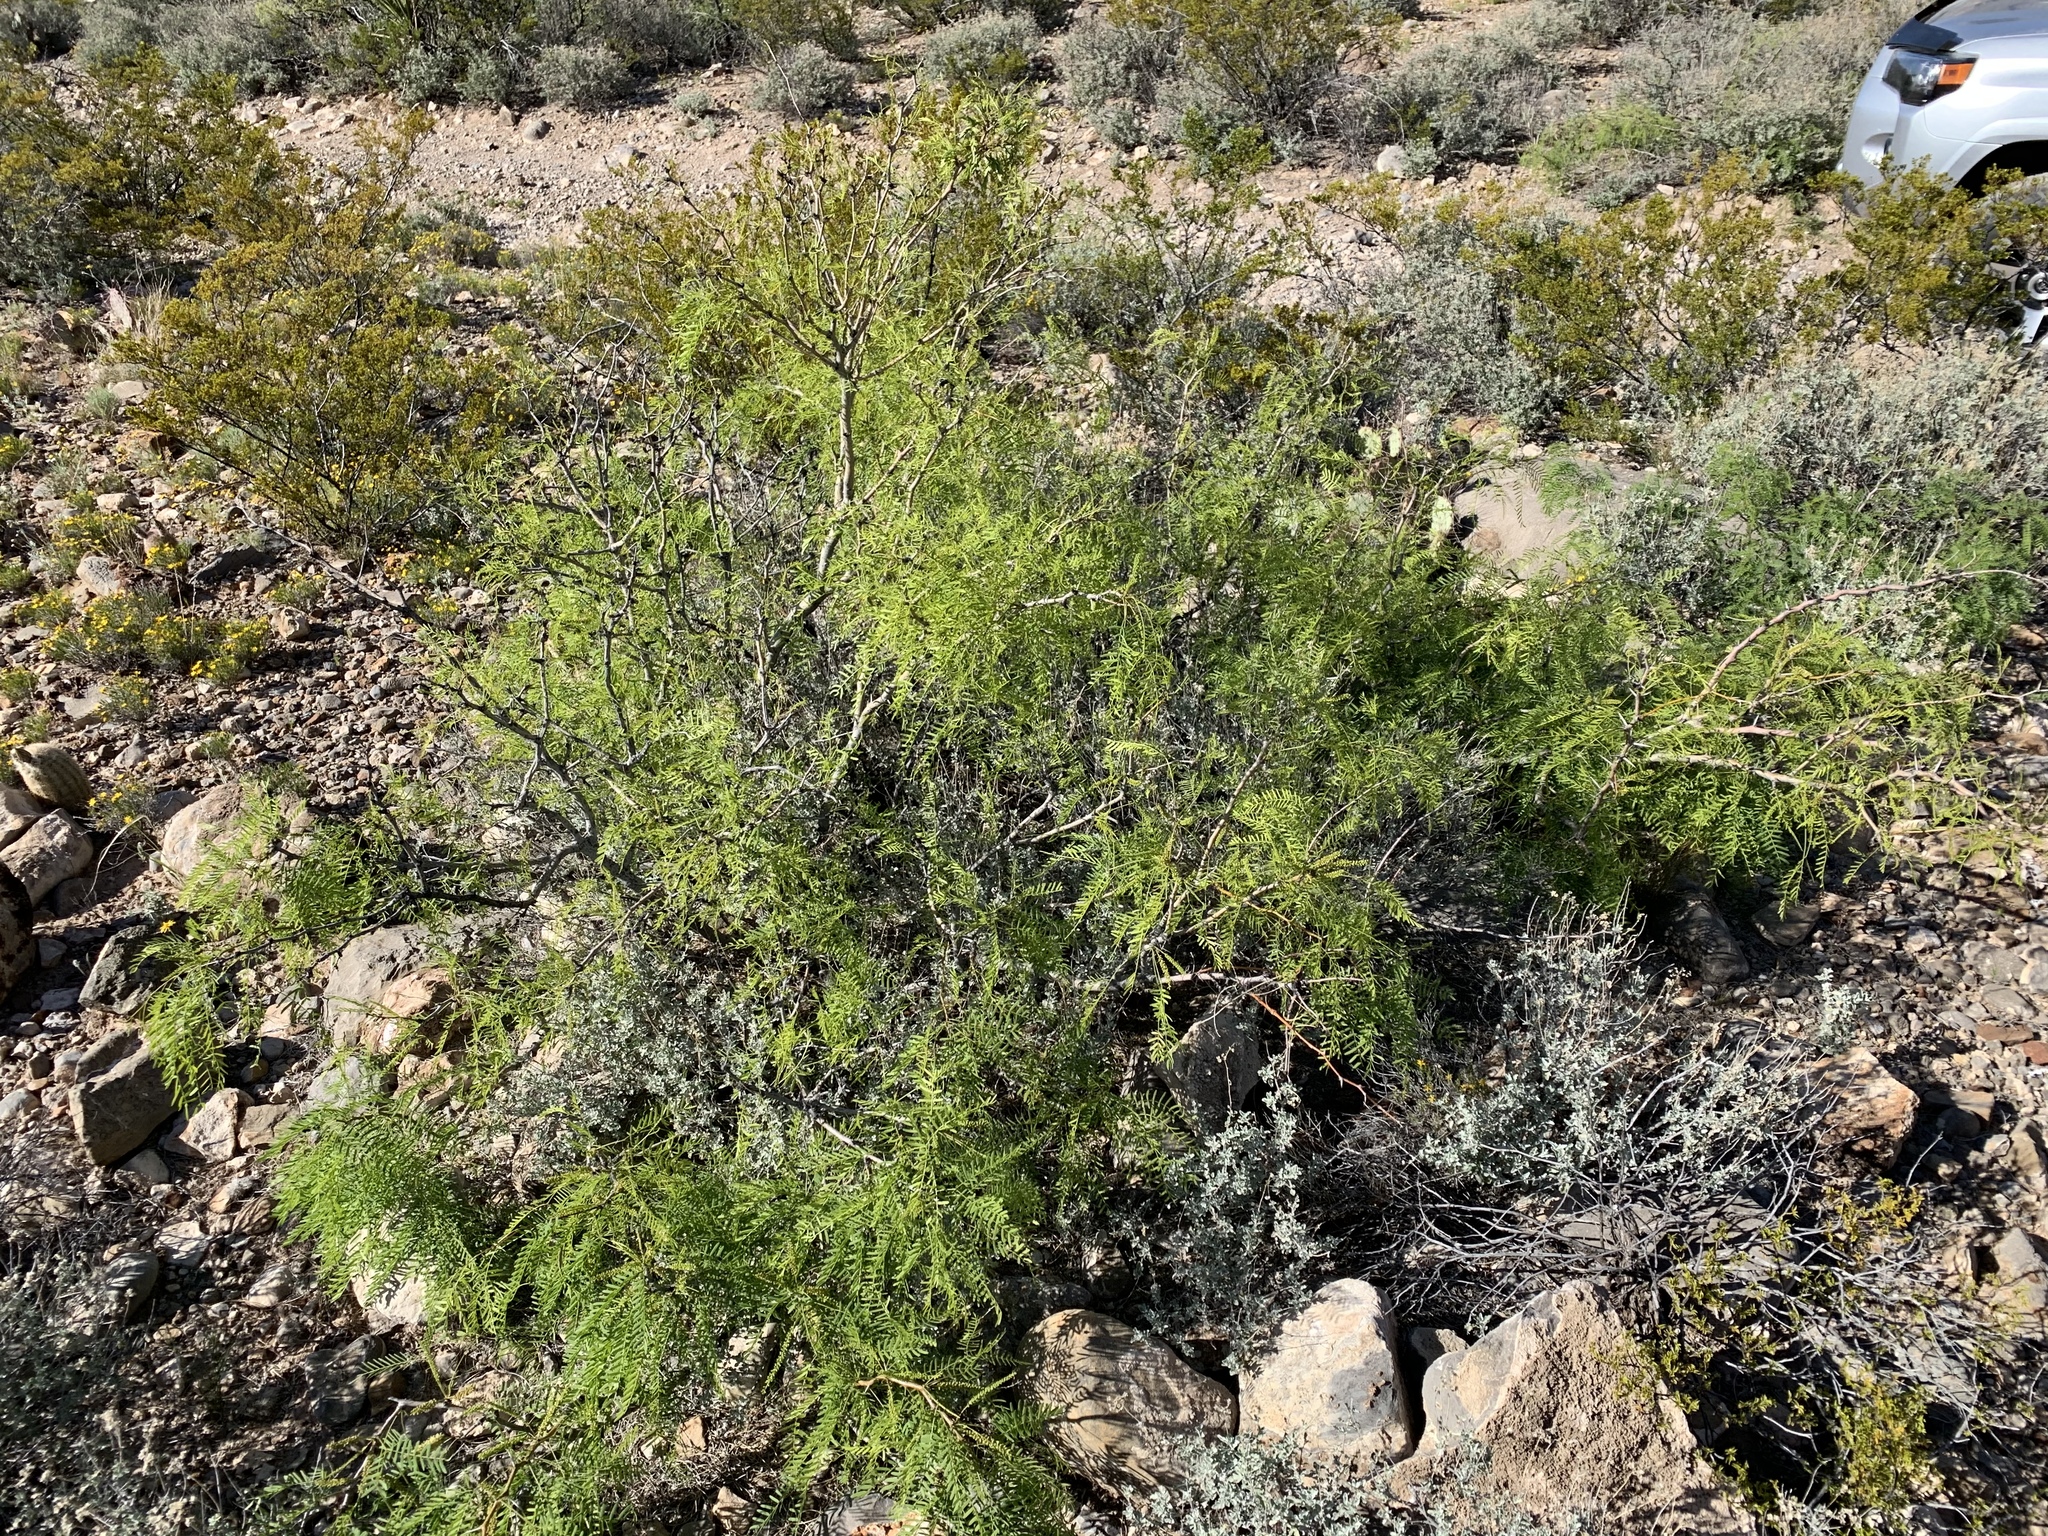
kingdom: Plantae
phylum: Tracheophyta
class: Magnoliopsida
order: Fabales
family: Fabaceae
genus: Prosopis
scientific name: Prosopis glandulosa
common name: Honey mesquite
